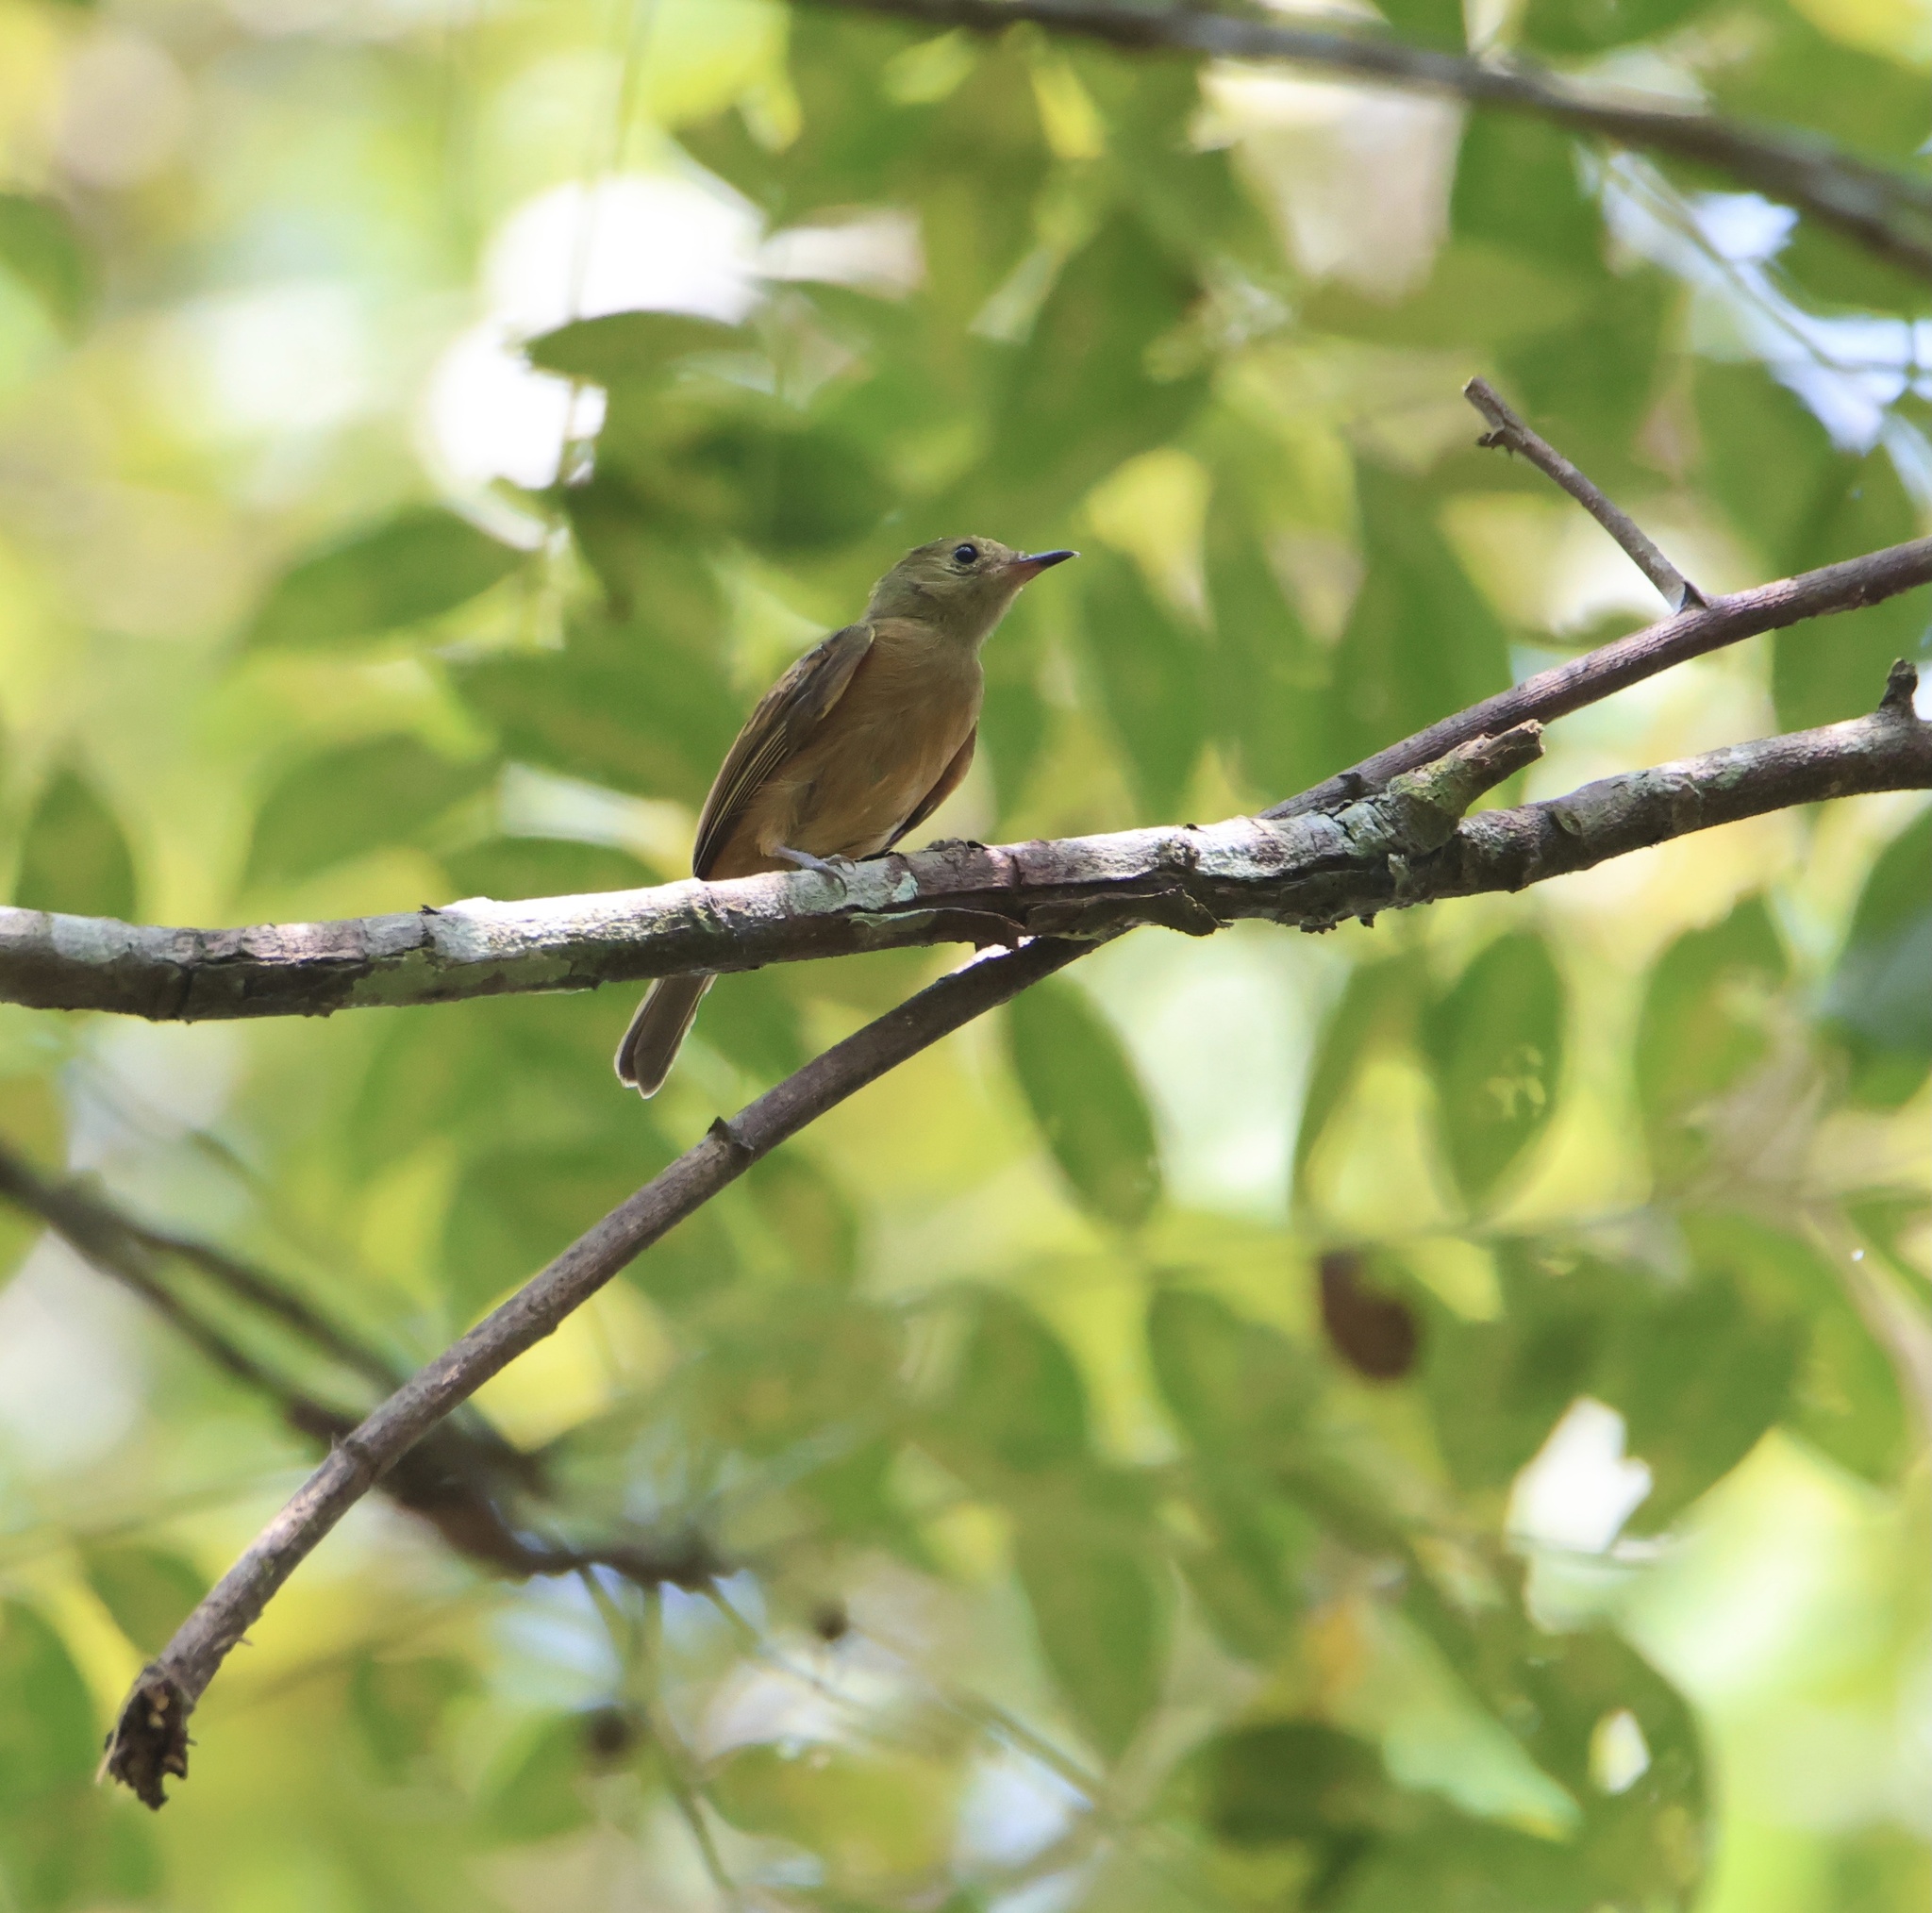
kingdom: Animalia
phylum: Chordata
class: Aves
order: Passeriformes
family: Tyrannidae
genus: Mionectes
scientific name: Mionectes oleagineus
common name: Ochre-bellied flycatcher
